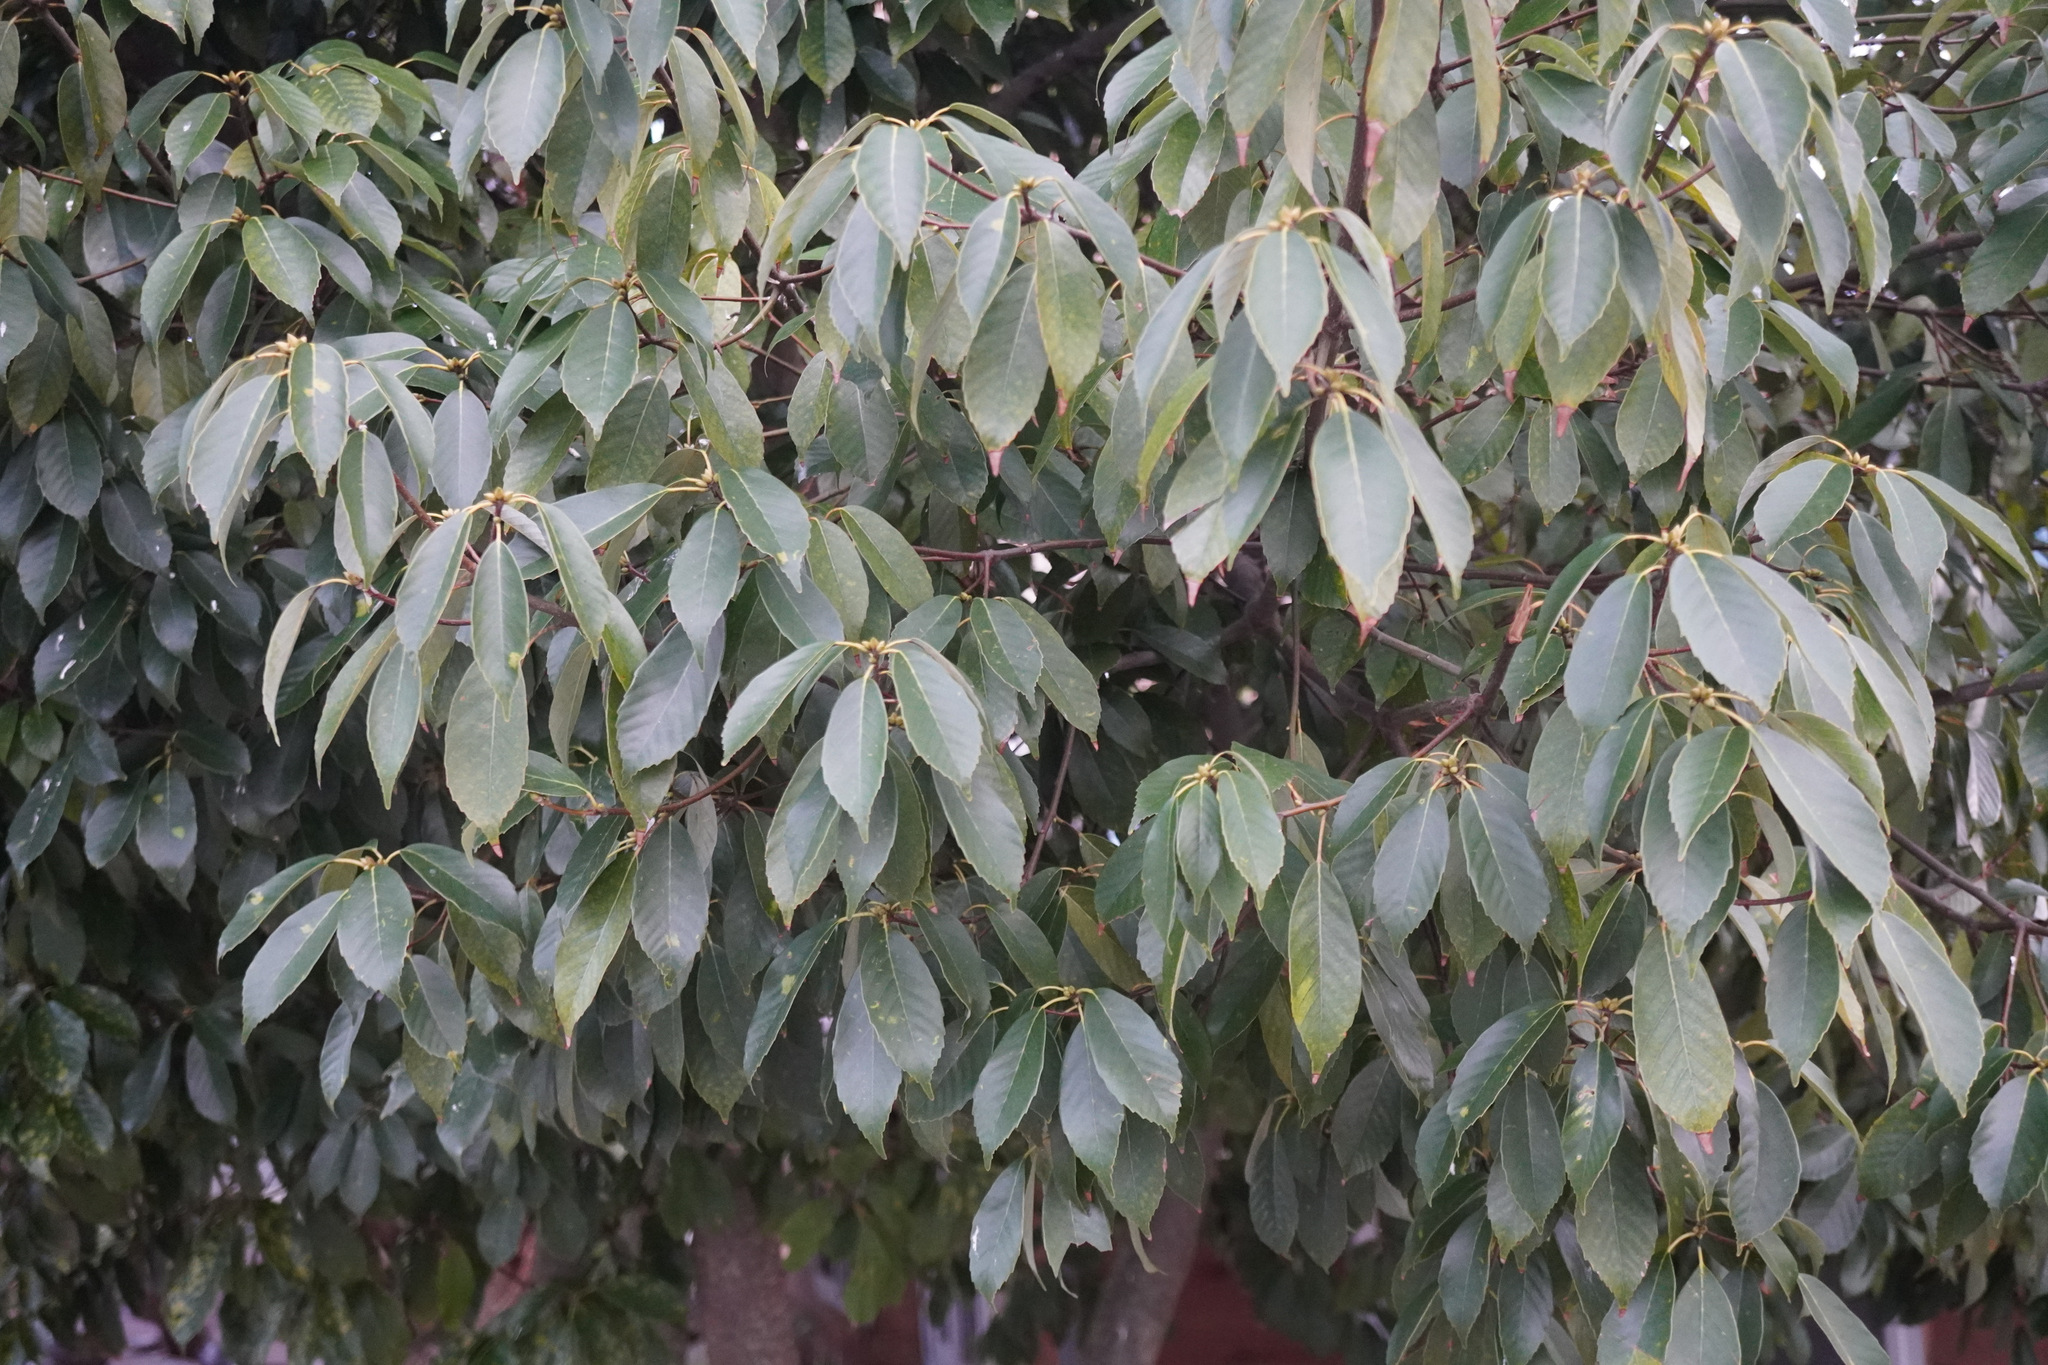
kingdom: Plantae
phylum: Tracheophyta
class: Magnoliopsida
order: Fagales
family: Fagaceae
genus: Quercus
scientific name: Quercus glauca
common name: Ring-cup oak
